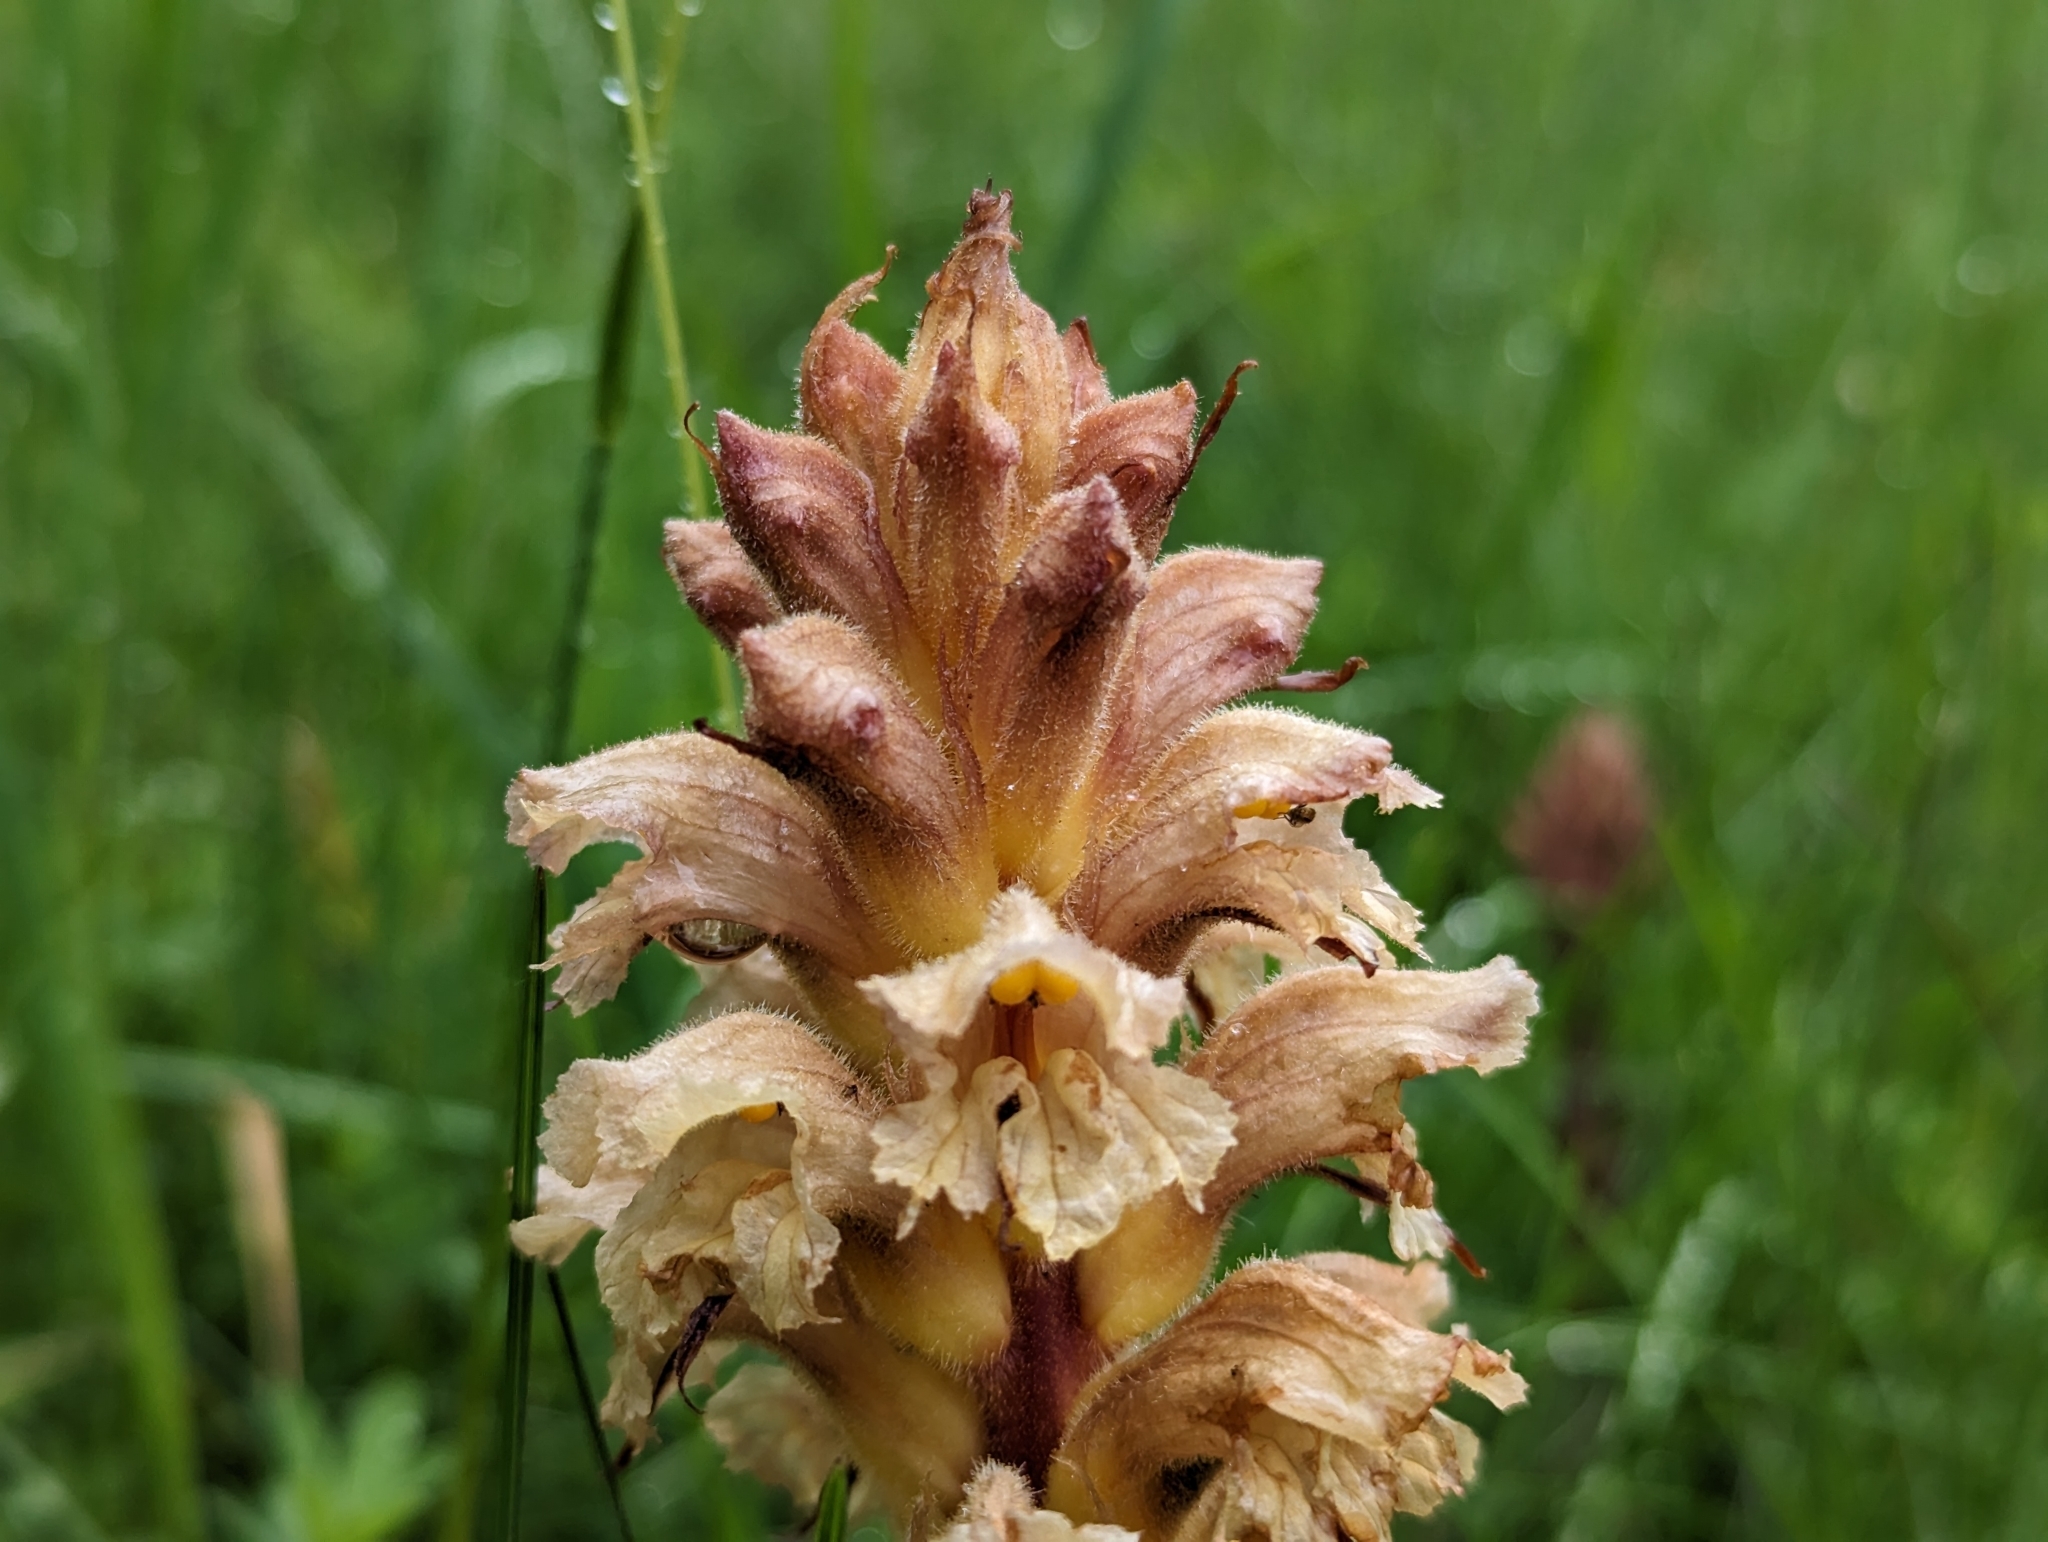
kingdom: Plantae
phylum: Tracheophyta
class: Magnoliopsida
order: Lamiales
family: Orobanchaceae
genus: Orobanche
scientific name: Orobanche lutea
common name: Yellow broomrape
